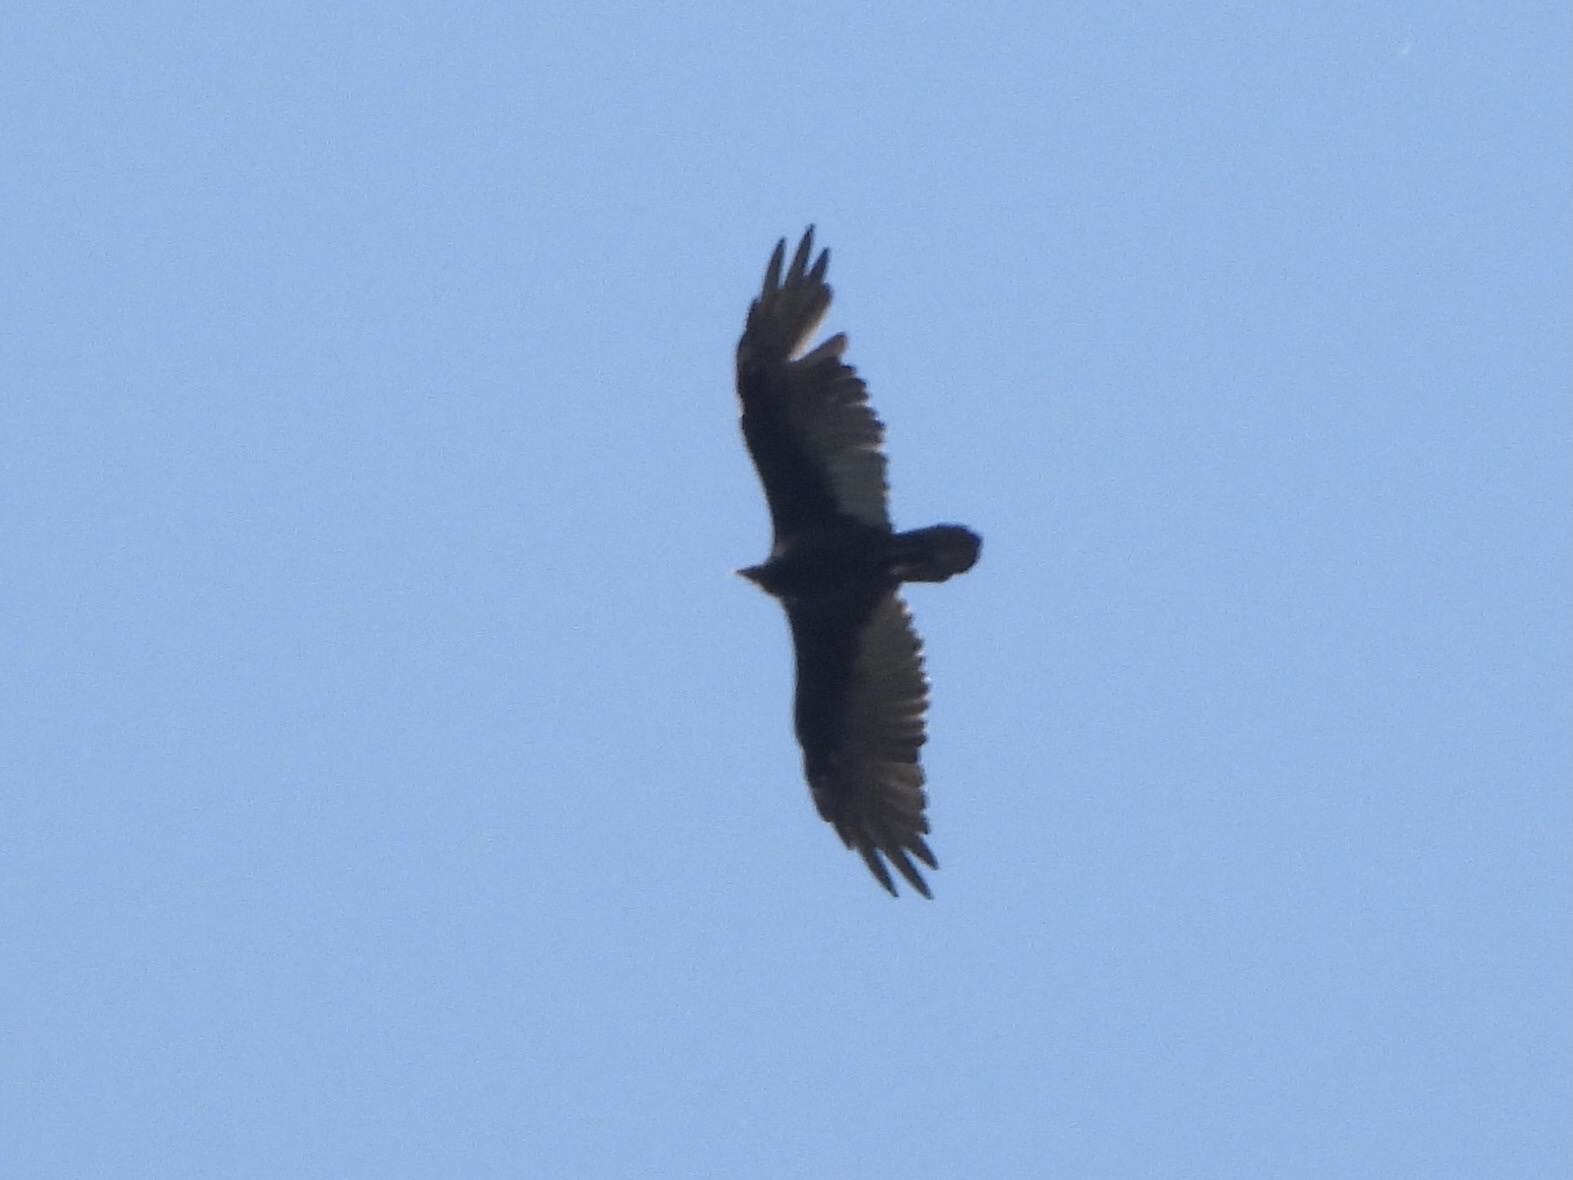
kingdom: Animalia
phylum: Chordata
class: Aves
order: Accipitriformes
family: Cathartidae
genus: Cathartes
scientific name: Cathartes aura
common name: Turkey vulture
